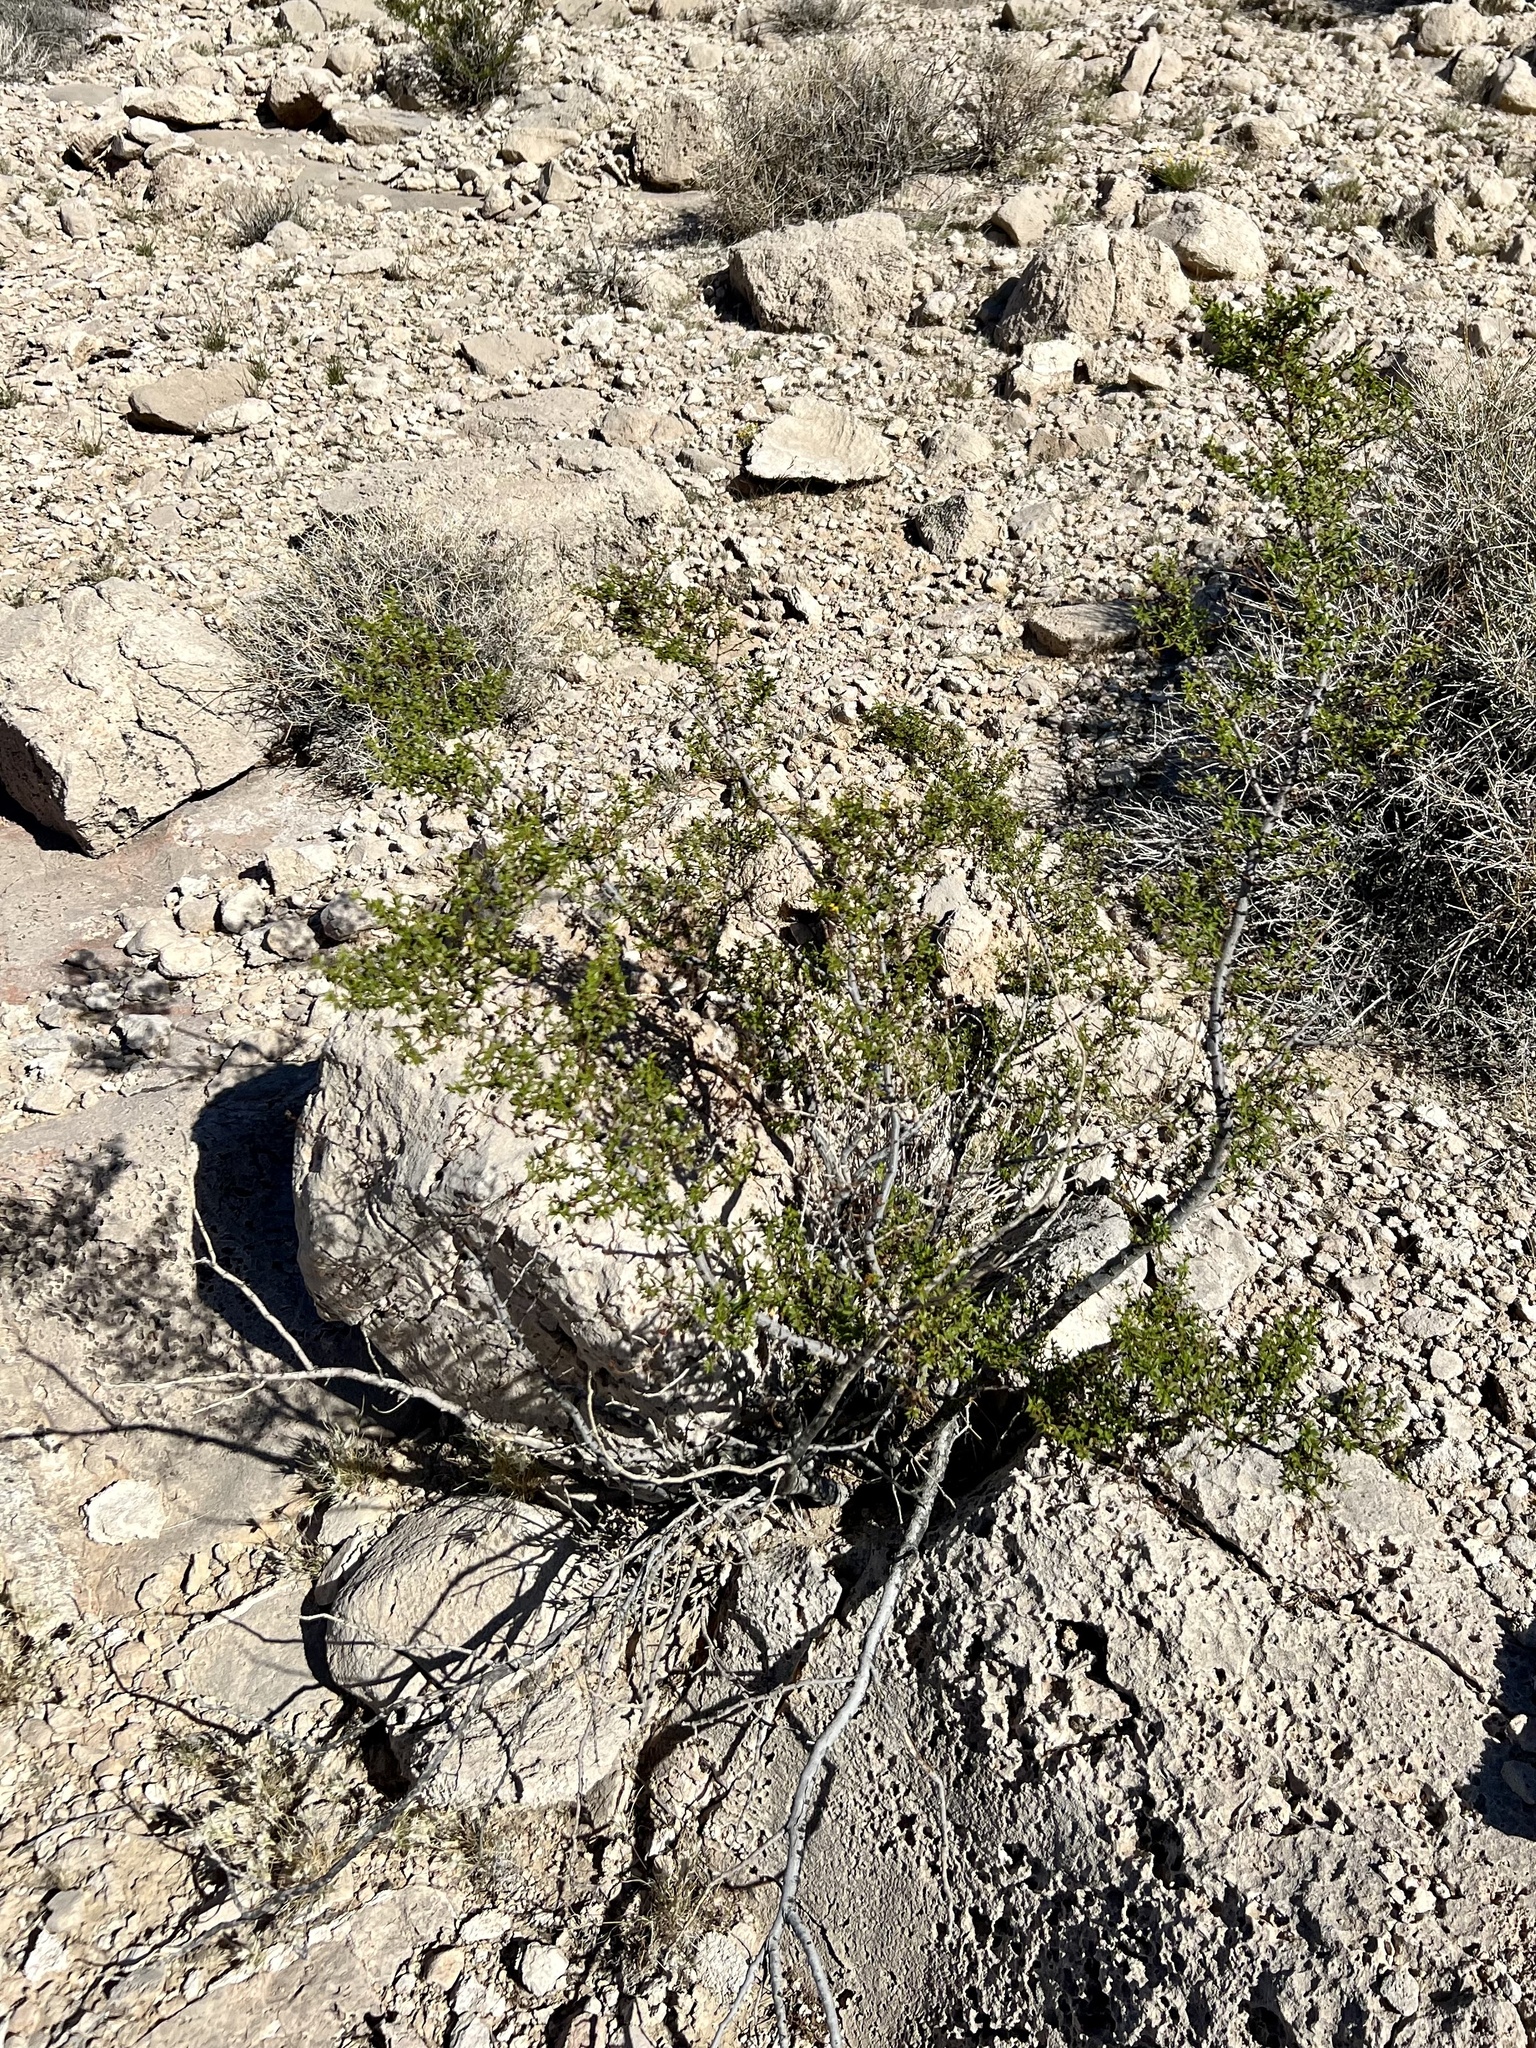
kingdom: Plantae
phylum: Tracheophyta
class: Magnoliopsida
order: Zygophyllales
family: Zygophyllaceae
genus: Larrea
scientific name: Larrea tridentata
